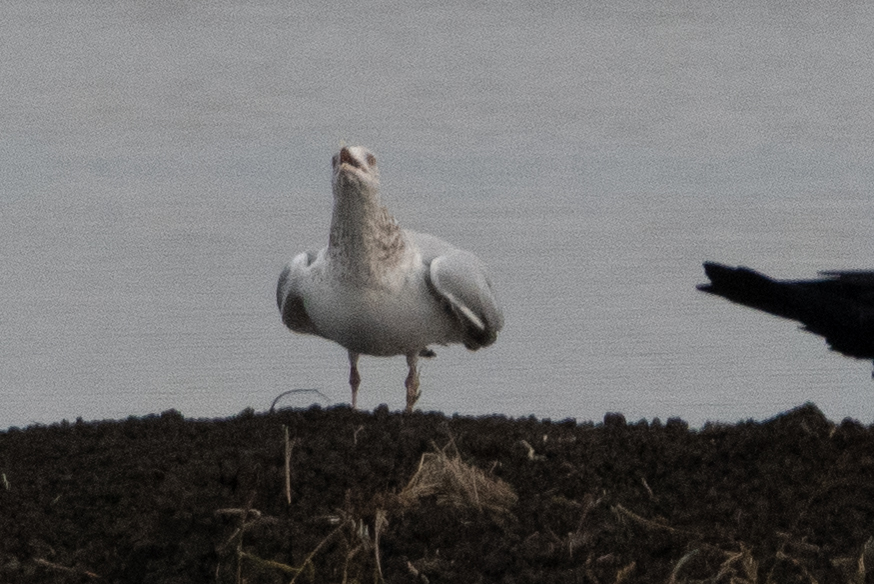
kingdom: Animalia
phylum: Chordata
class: Aves
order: Charadriiformes
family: Laridae
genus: Larus
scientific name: Larus argentatus
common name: Herring gull
